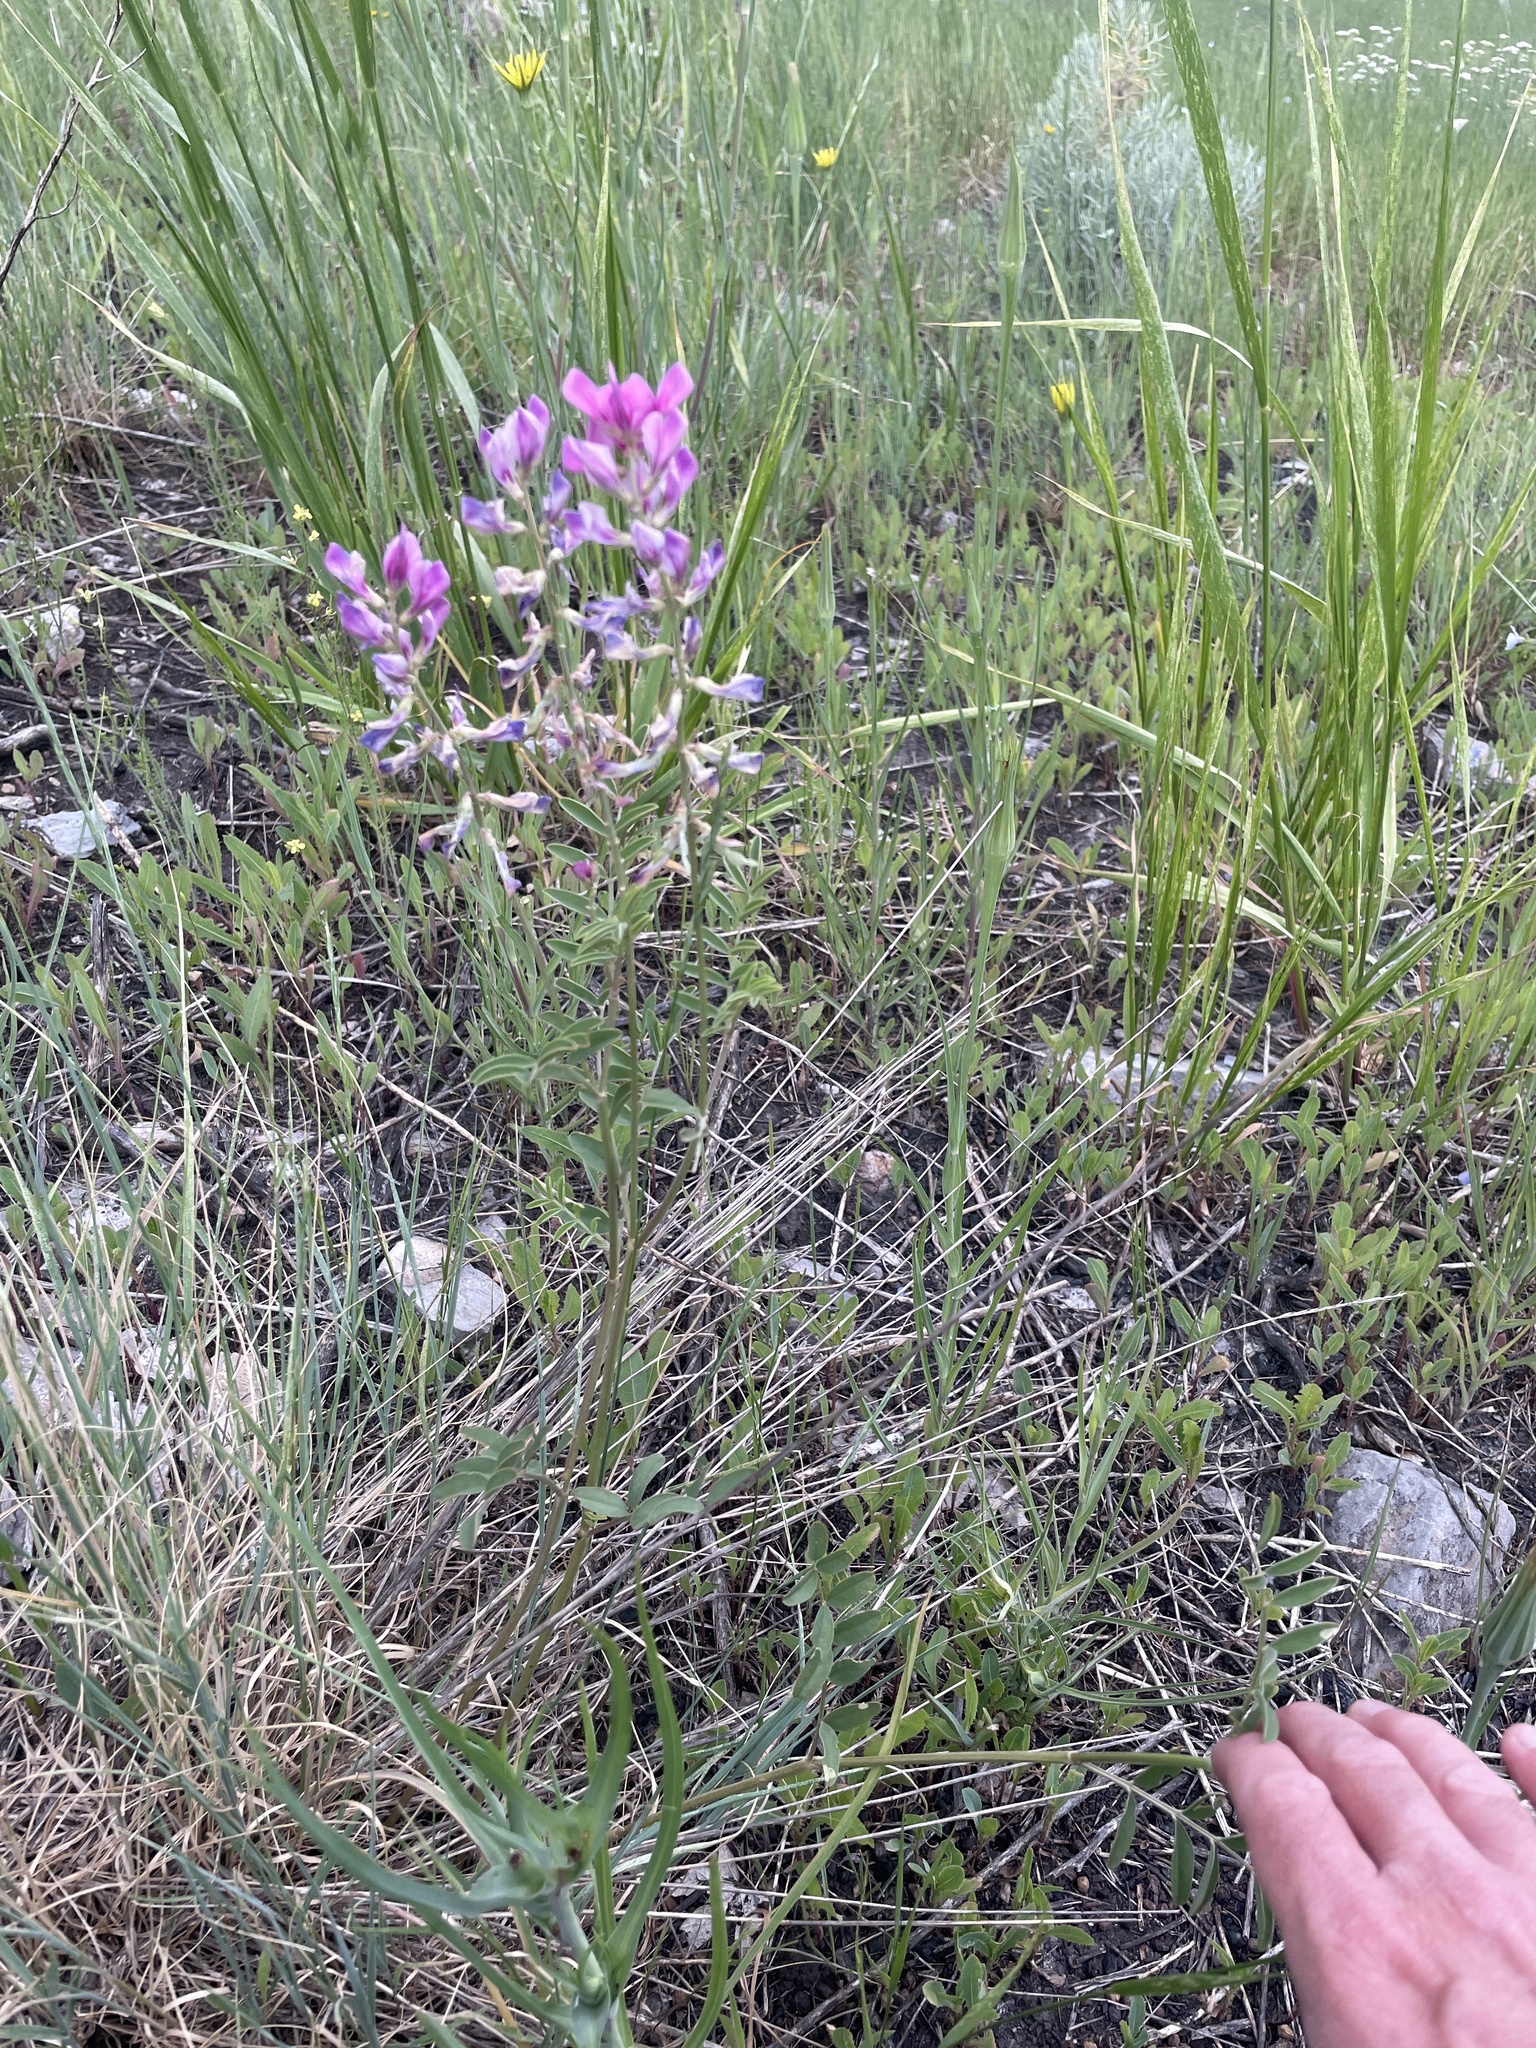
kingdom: Plantae
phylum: Tracheophyta
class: Magnoliopsida
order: Fabales
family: Fabaceae
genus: Hedysarum
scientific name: Hedysarum boreale
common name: Northern sweet-vetch
